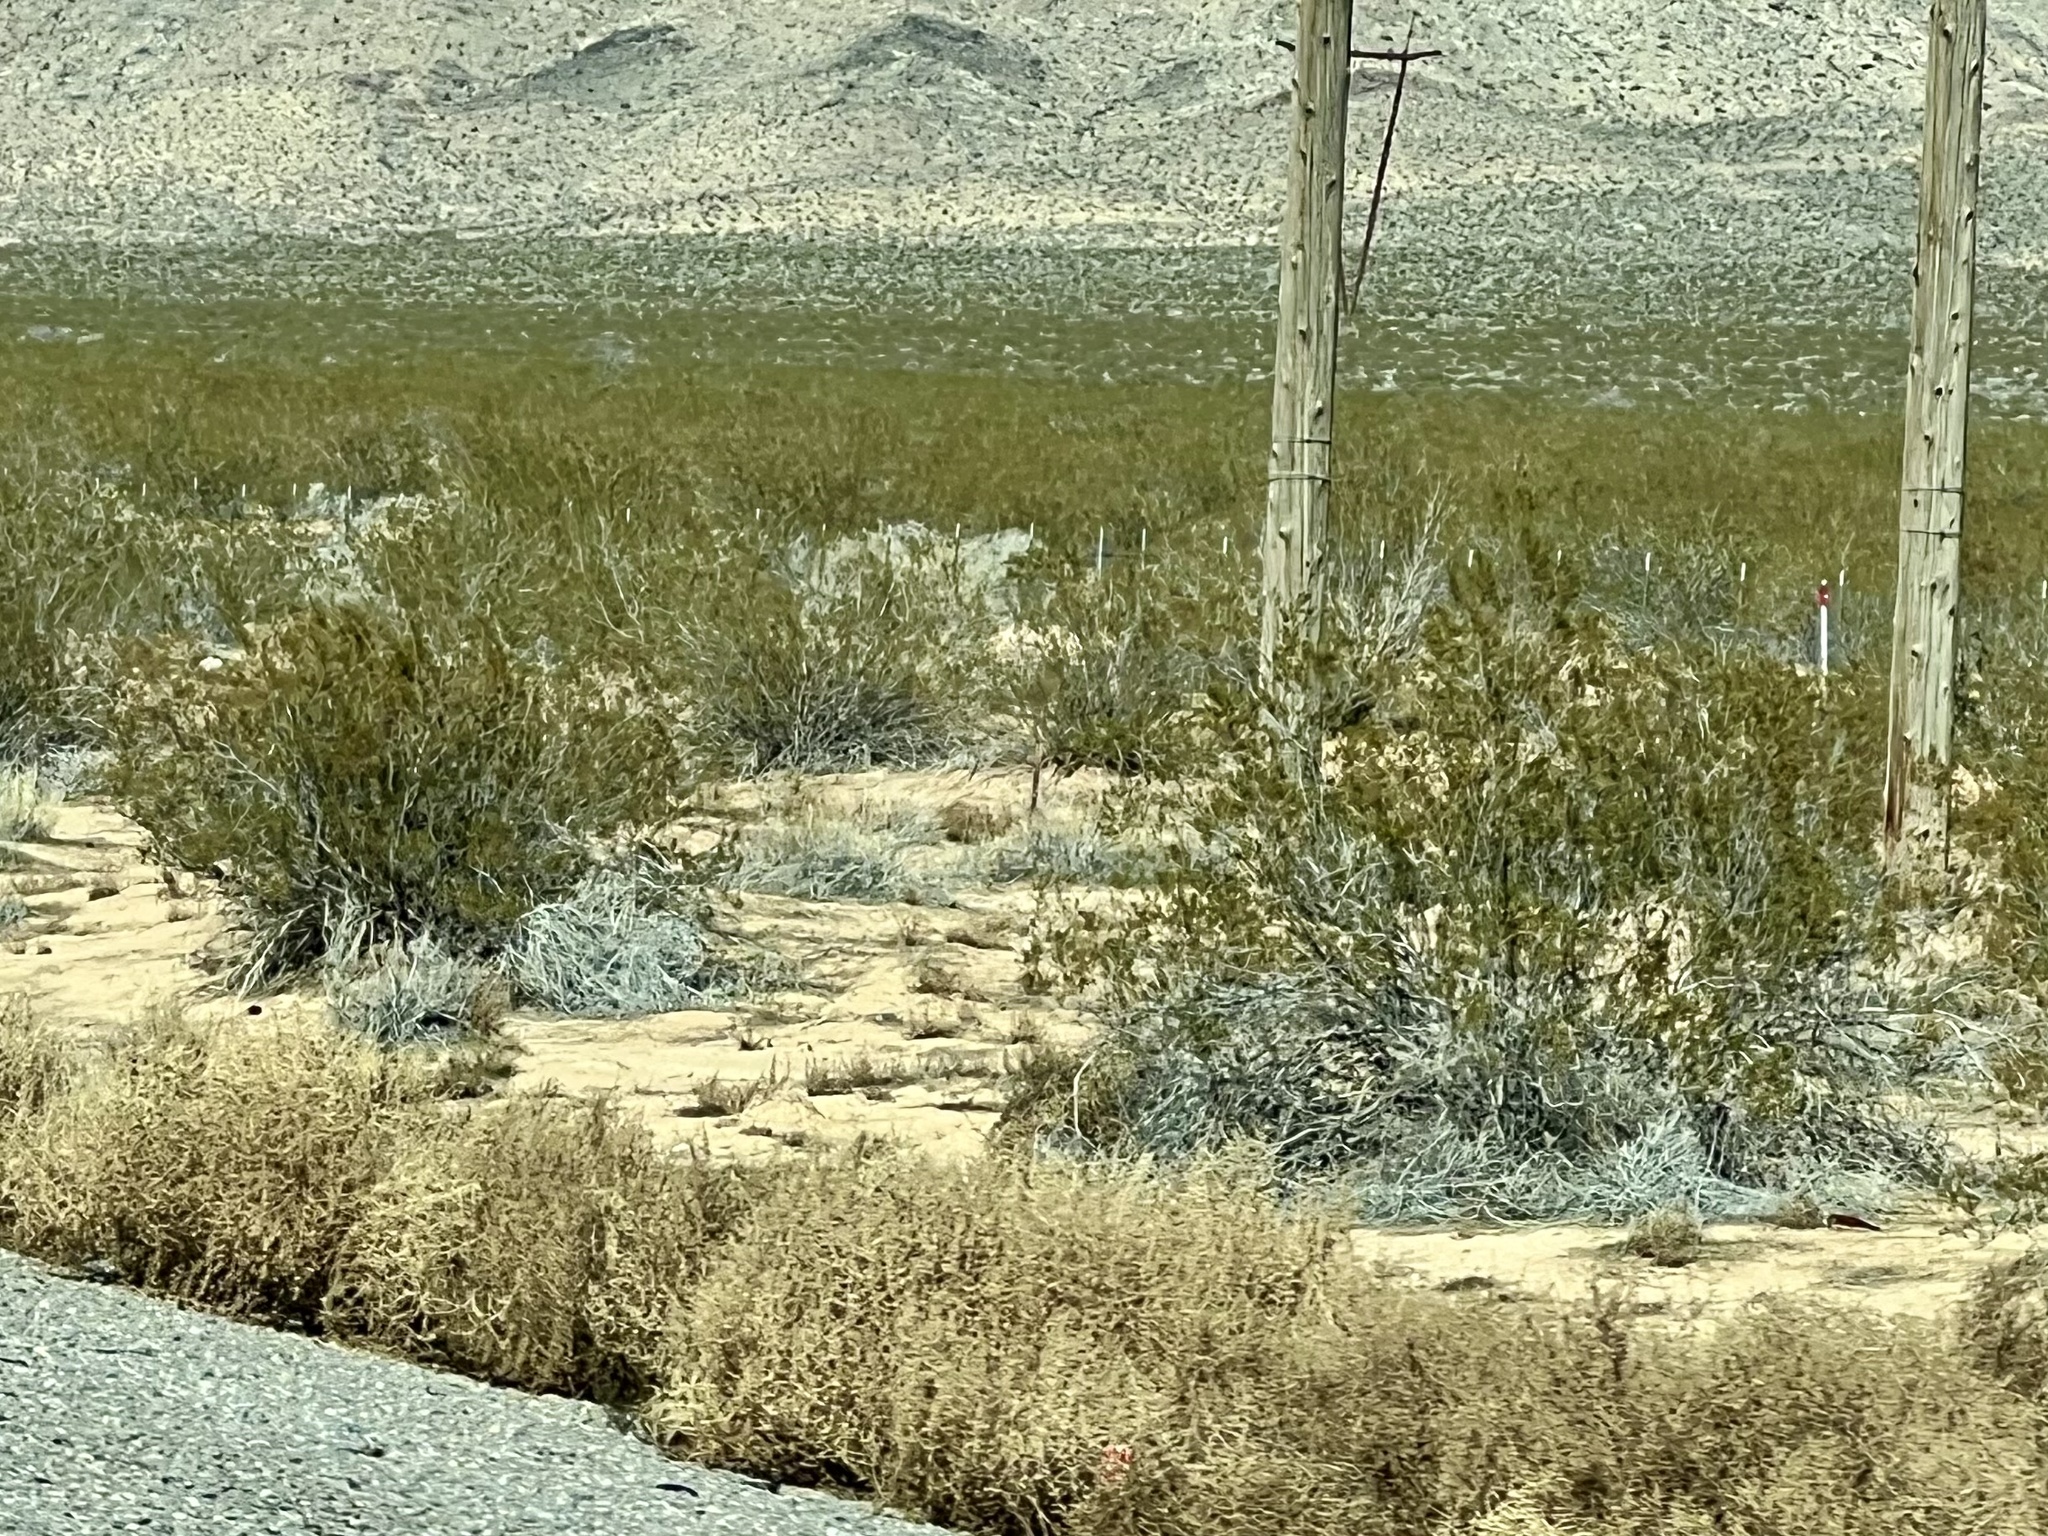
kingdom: Plantae
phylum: Tracheophyta
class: Magnoliopsida
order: Zygophyllales
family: Zygophyllaceae
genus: Larrea
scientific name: Larrea tridentata
